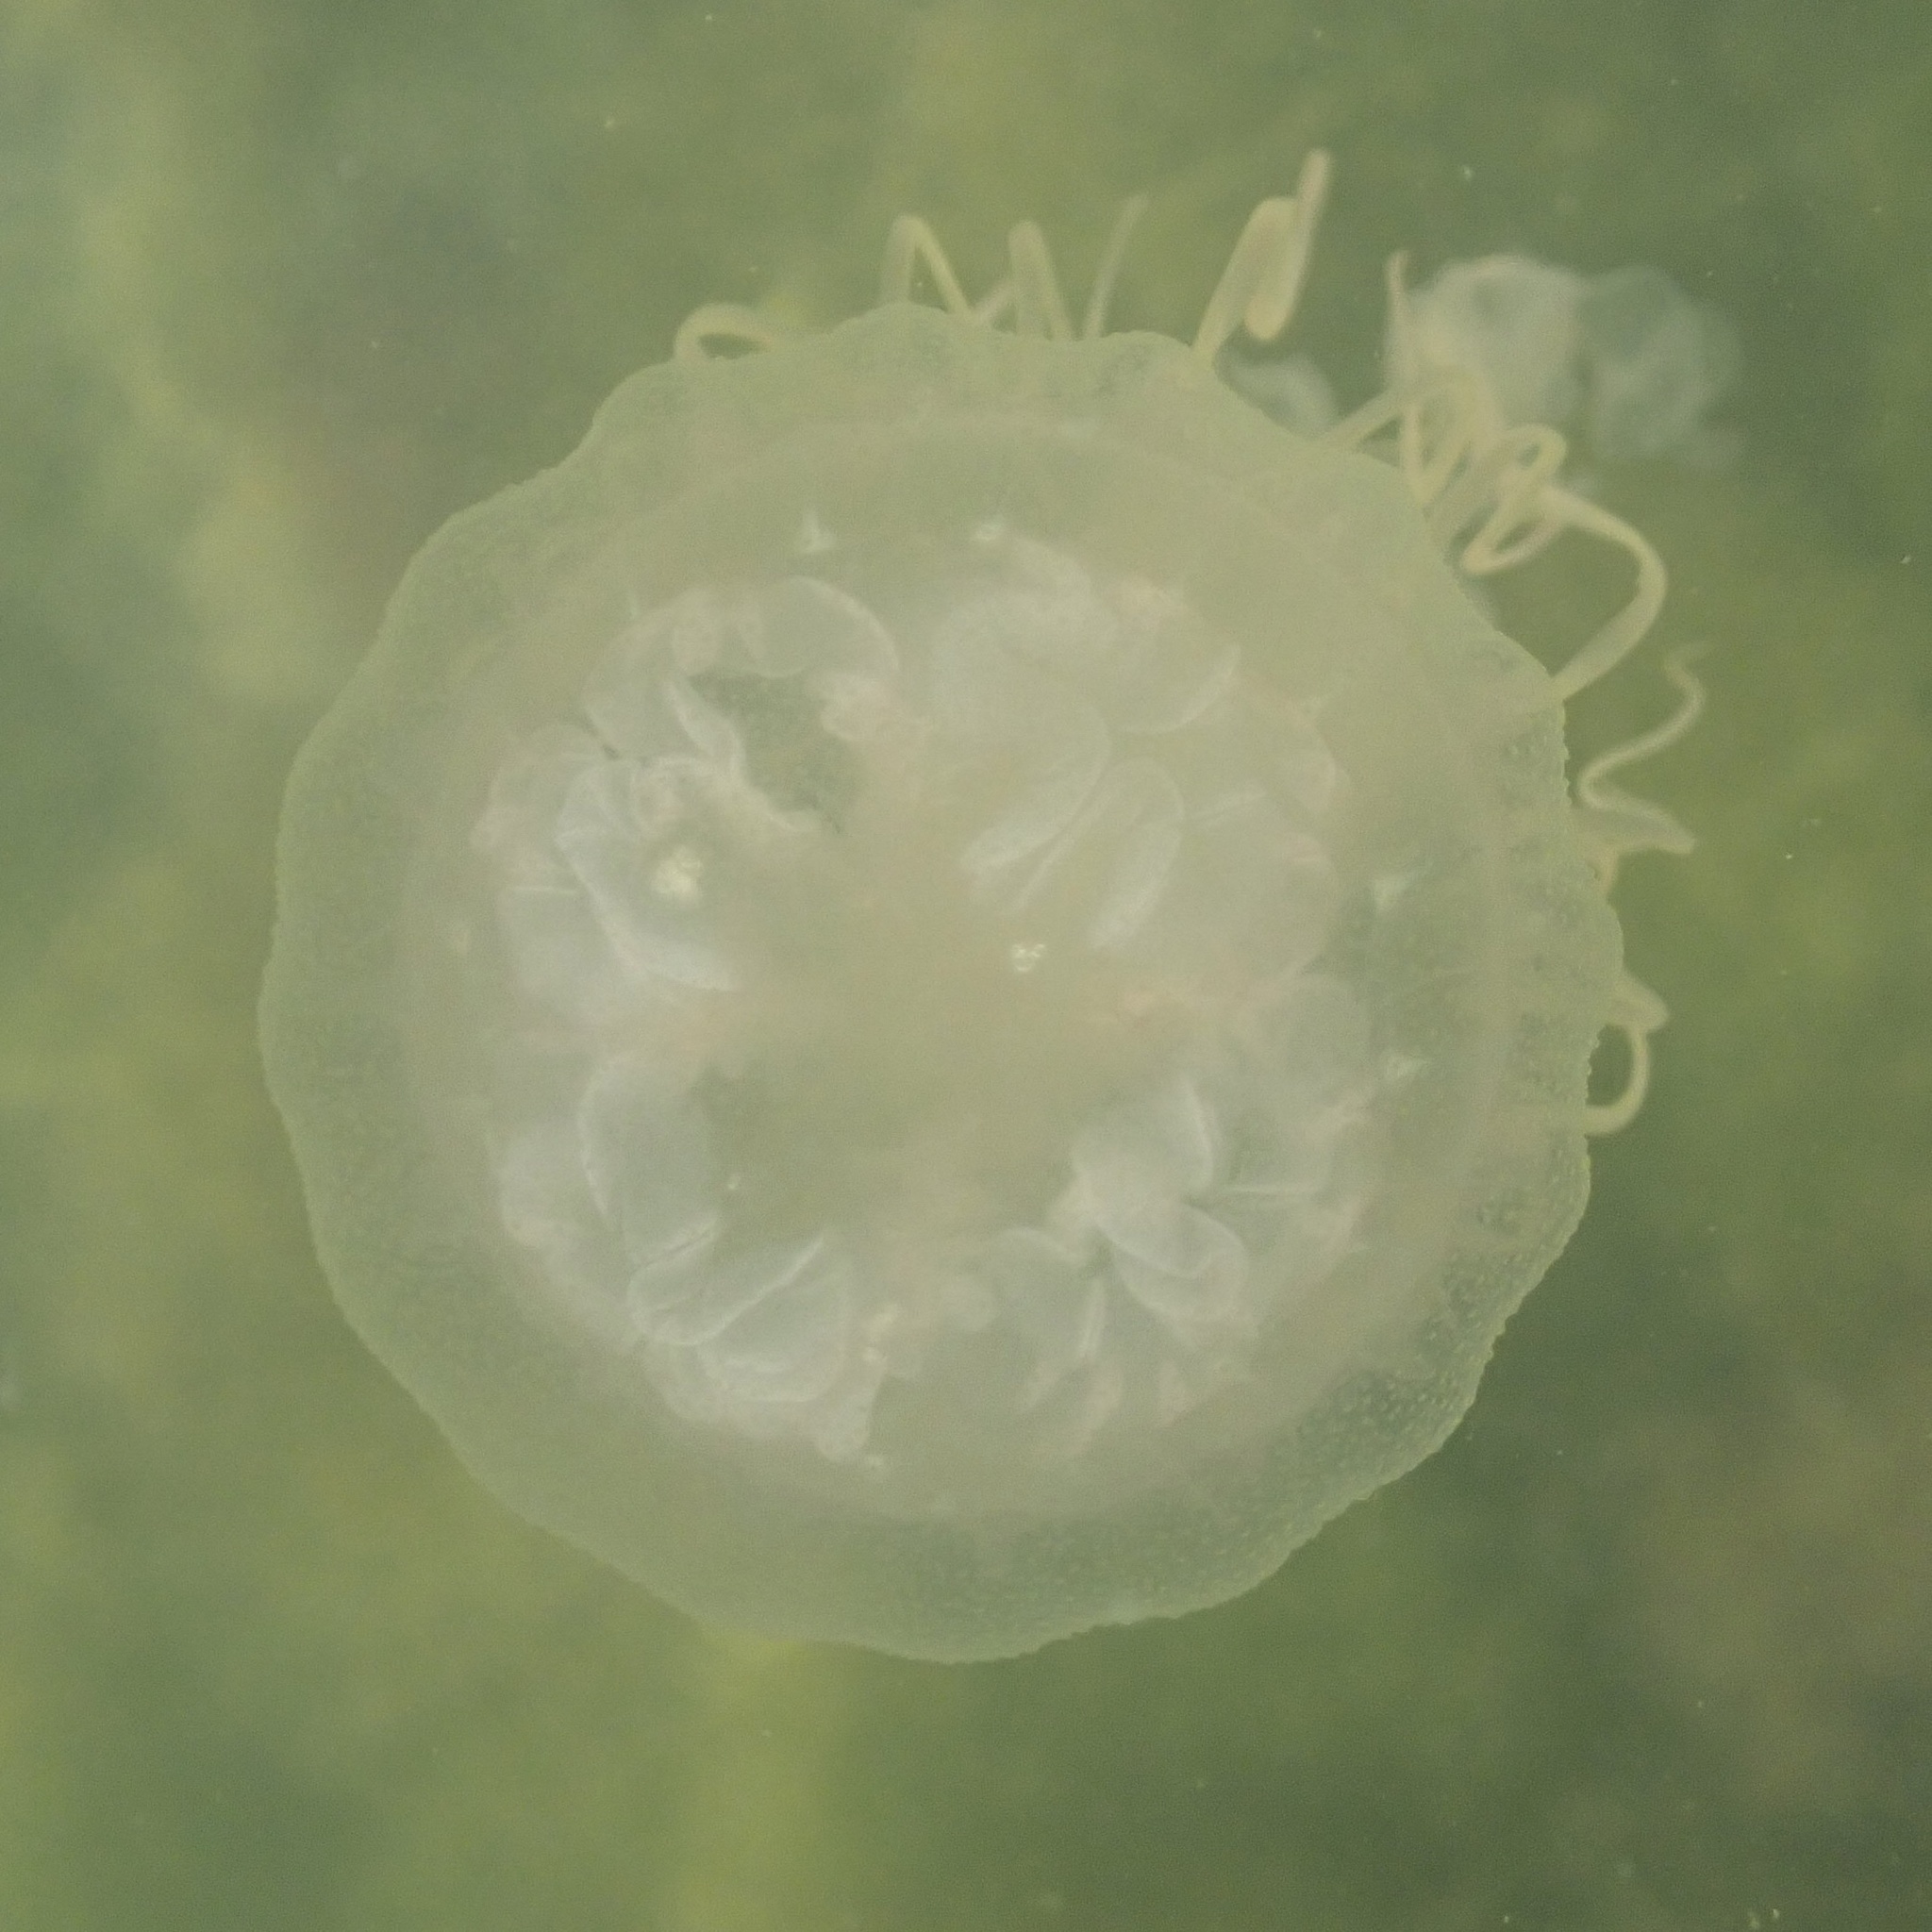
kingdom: Animalia
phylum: Cnidaria
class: Scyphozoa
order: Semaeostomeae
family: Pelagiidae
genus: Chrysaora
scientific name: Chrysaora chesapeakei
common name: Bay nettle
